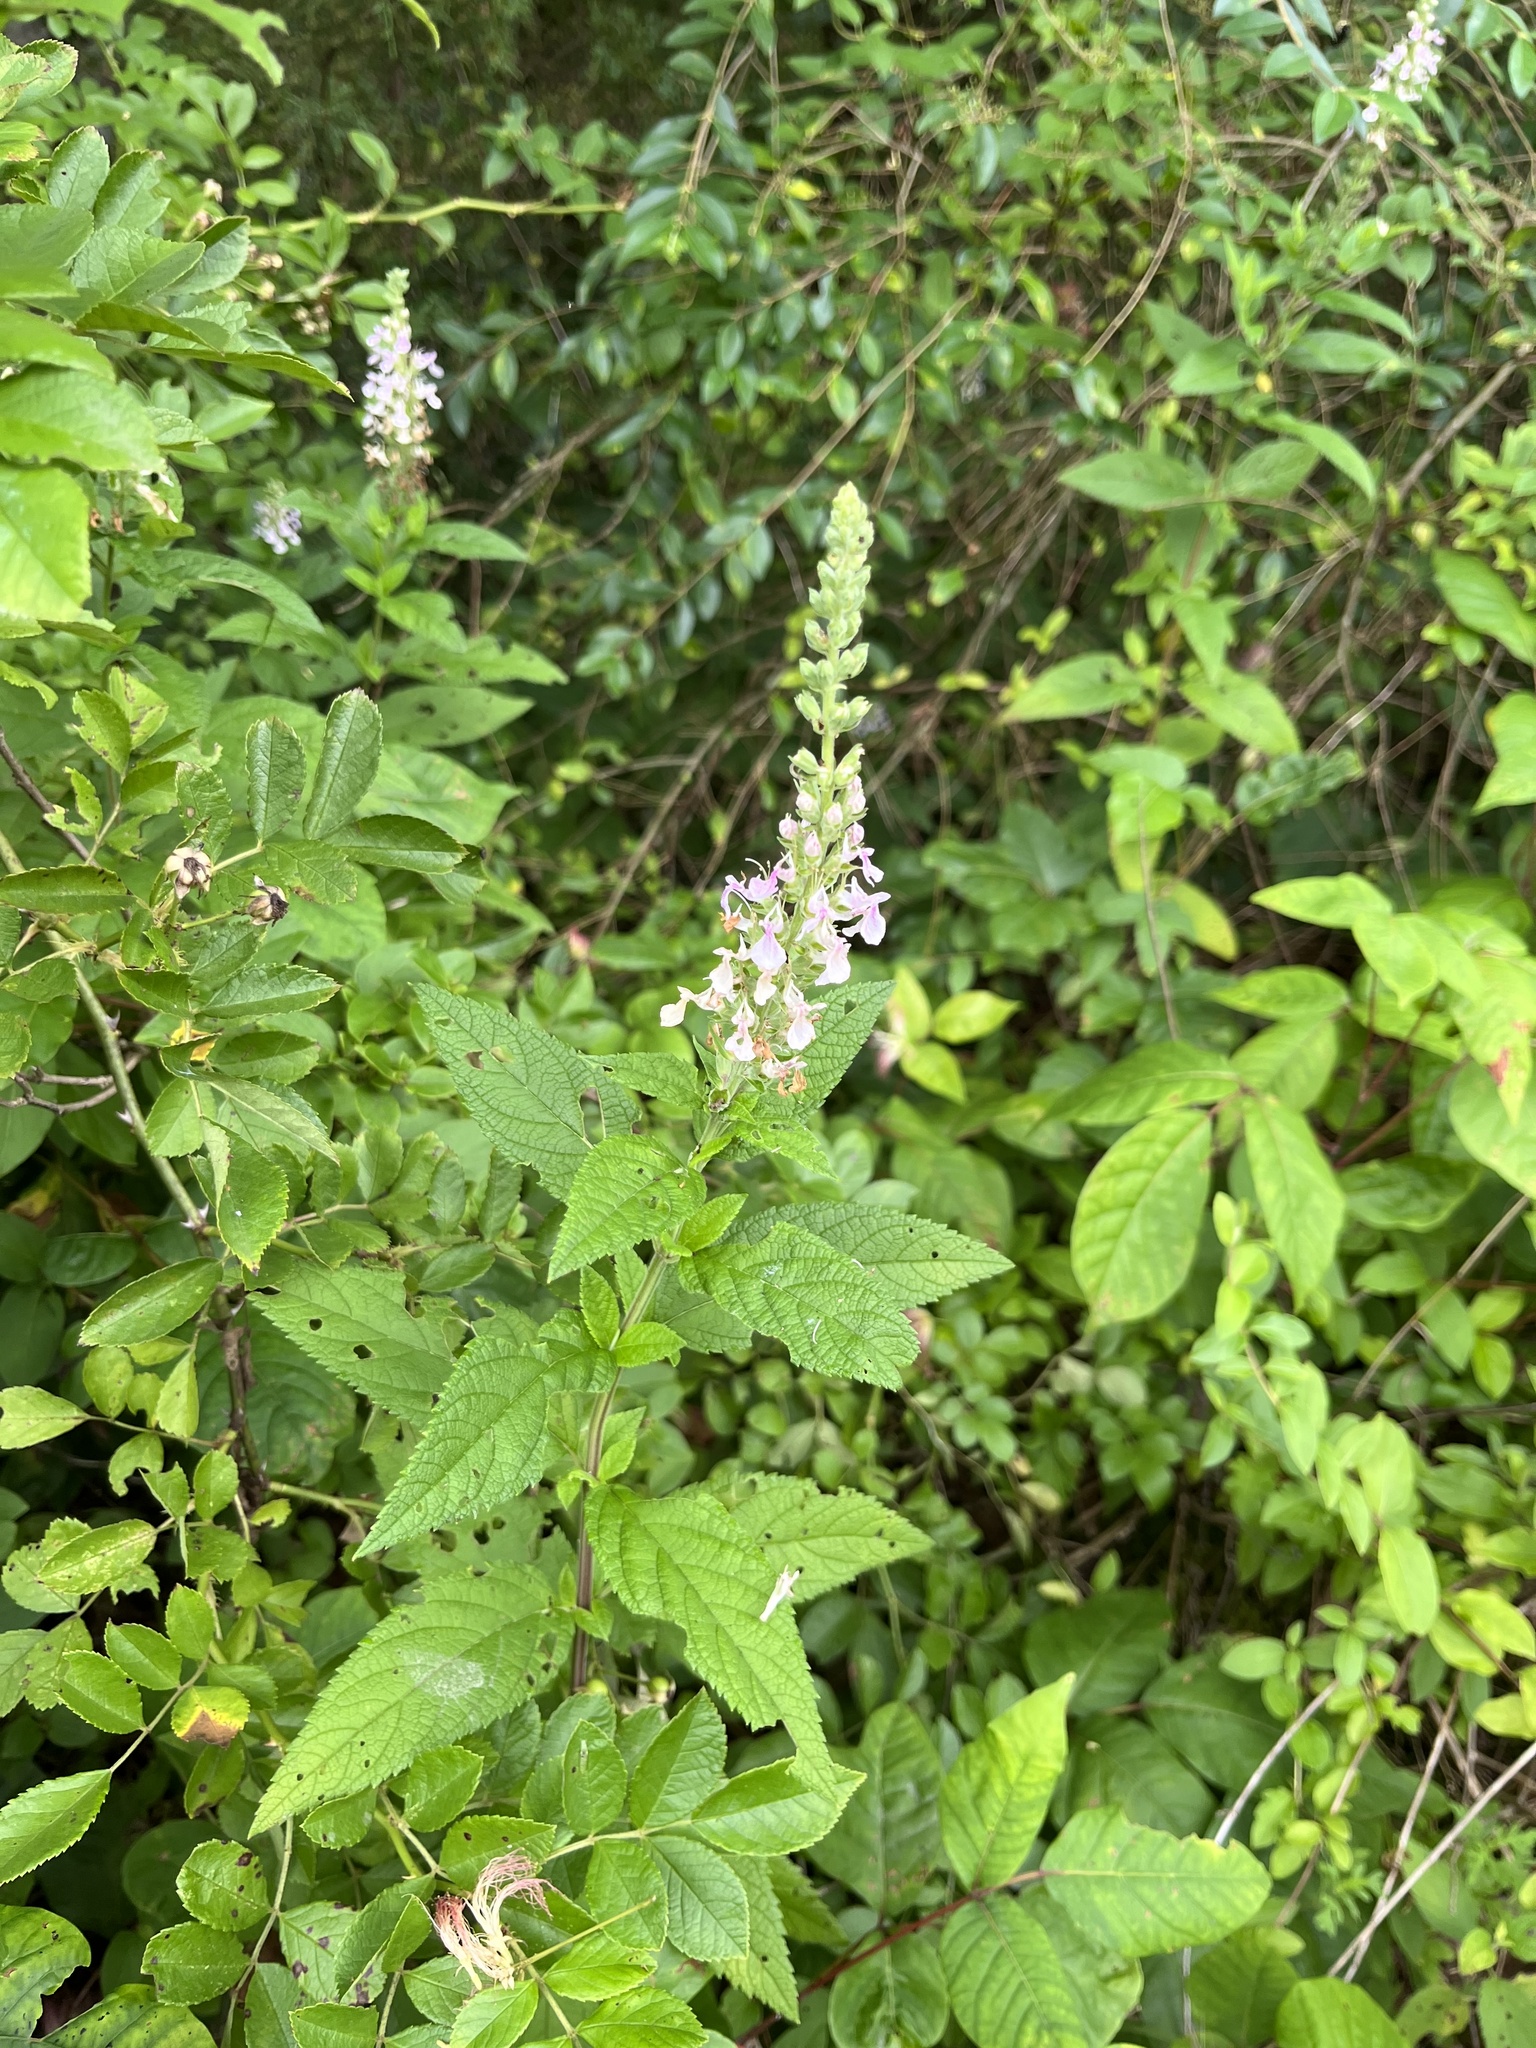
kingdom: Plantae
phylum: Tracheophyta
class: Magnoliopsida
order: Lamiales
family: Lamiaceae
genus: Teucrium
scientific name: Teucrium canadense
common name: American germander
